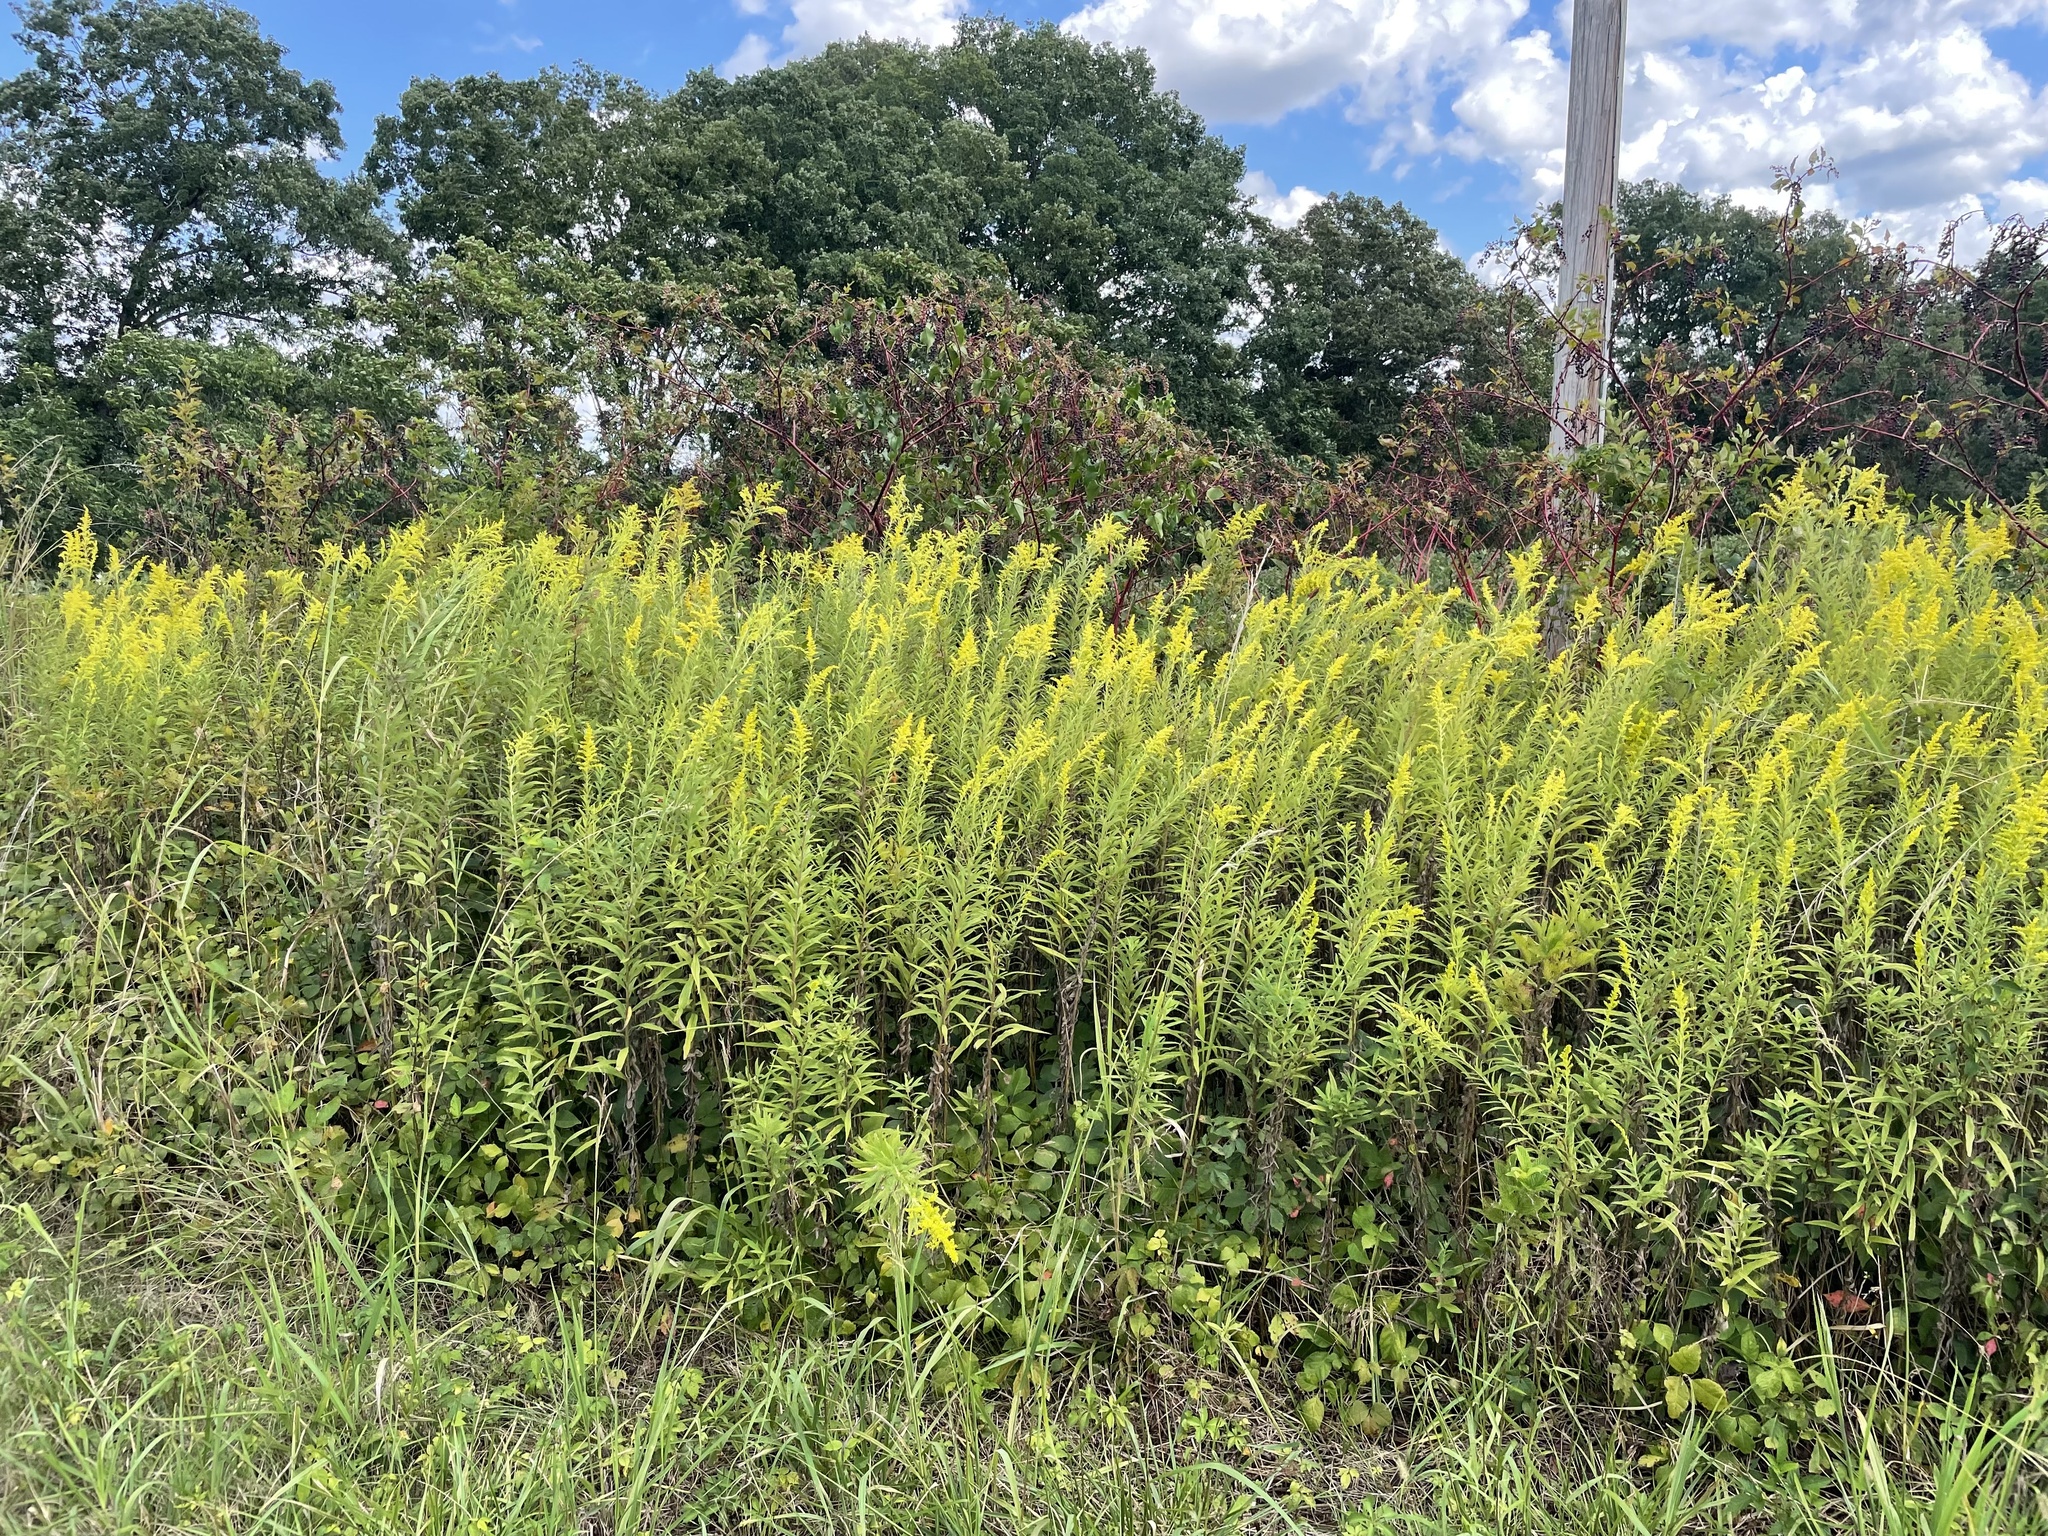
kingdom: Plantae
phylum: Tracheophyta
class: Magnoliopsida
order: Asterales
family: Asteraceae
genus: Solidago
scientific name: Solidago altissima
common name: Late goldenrod
